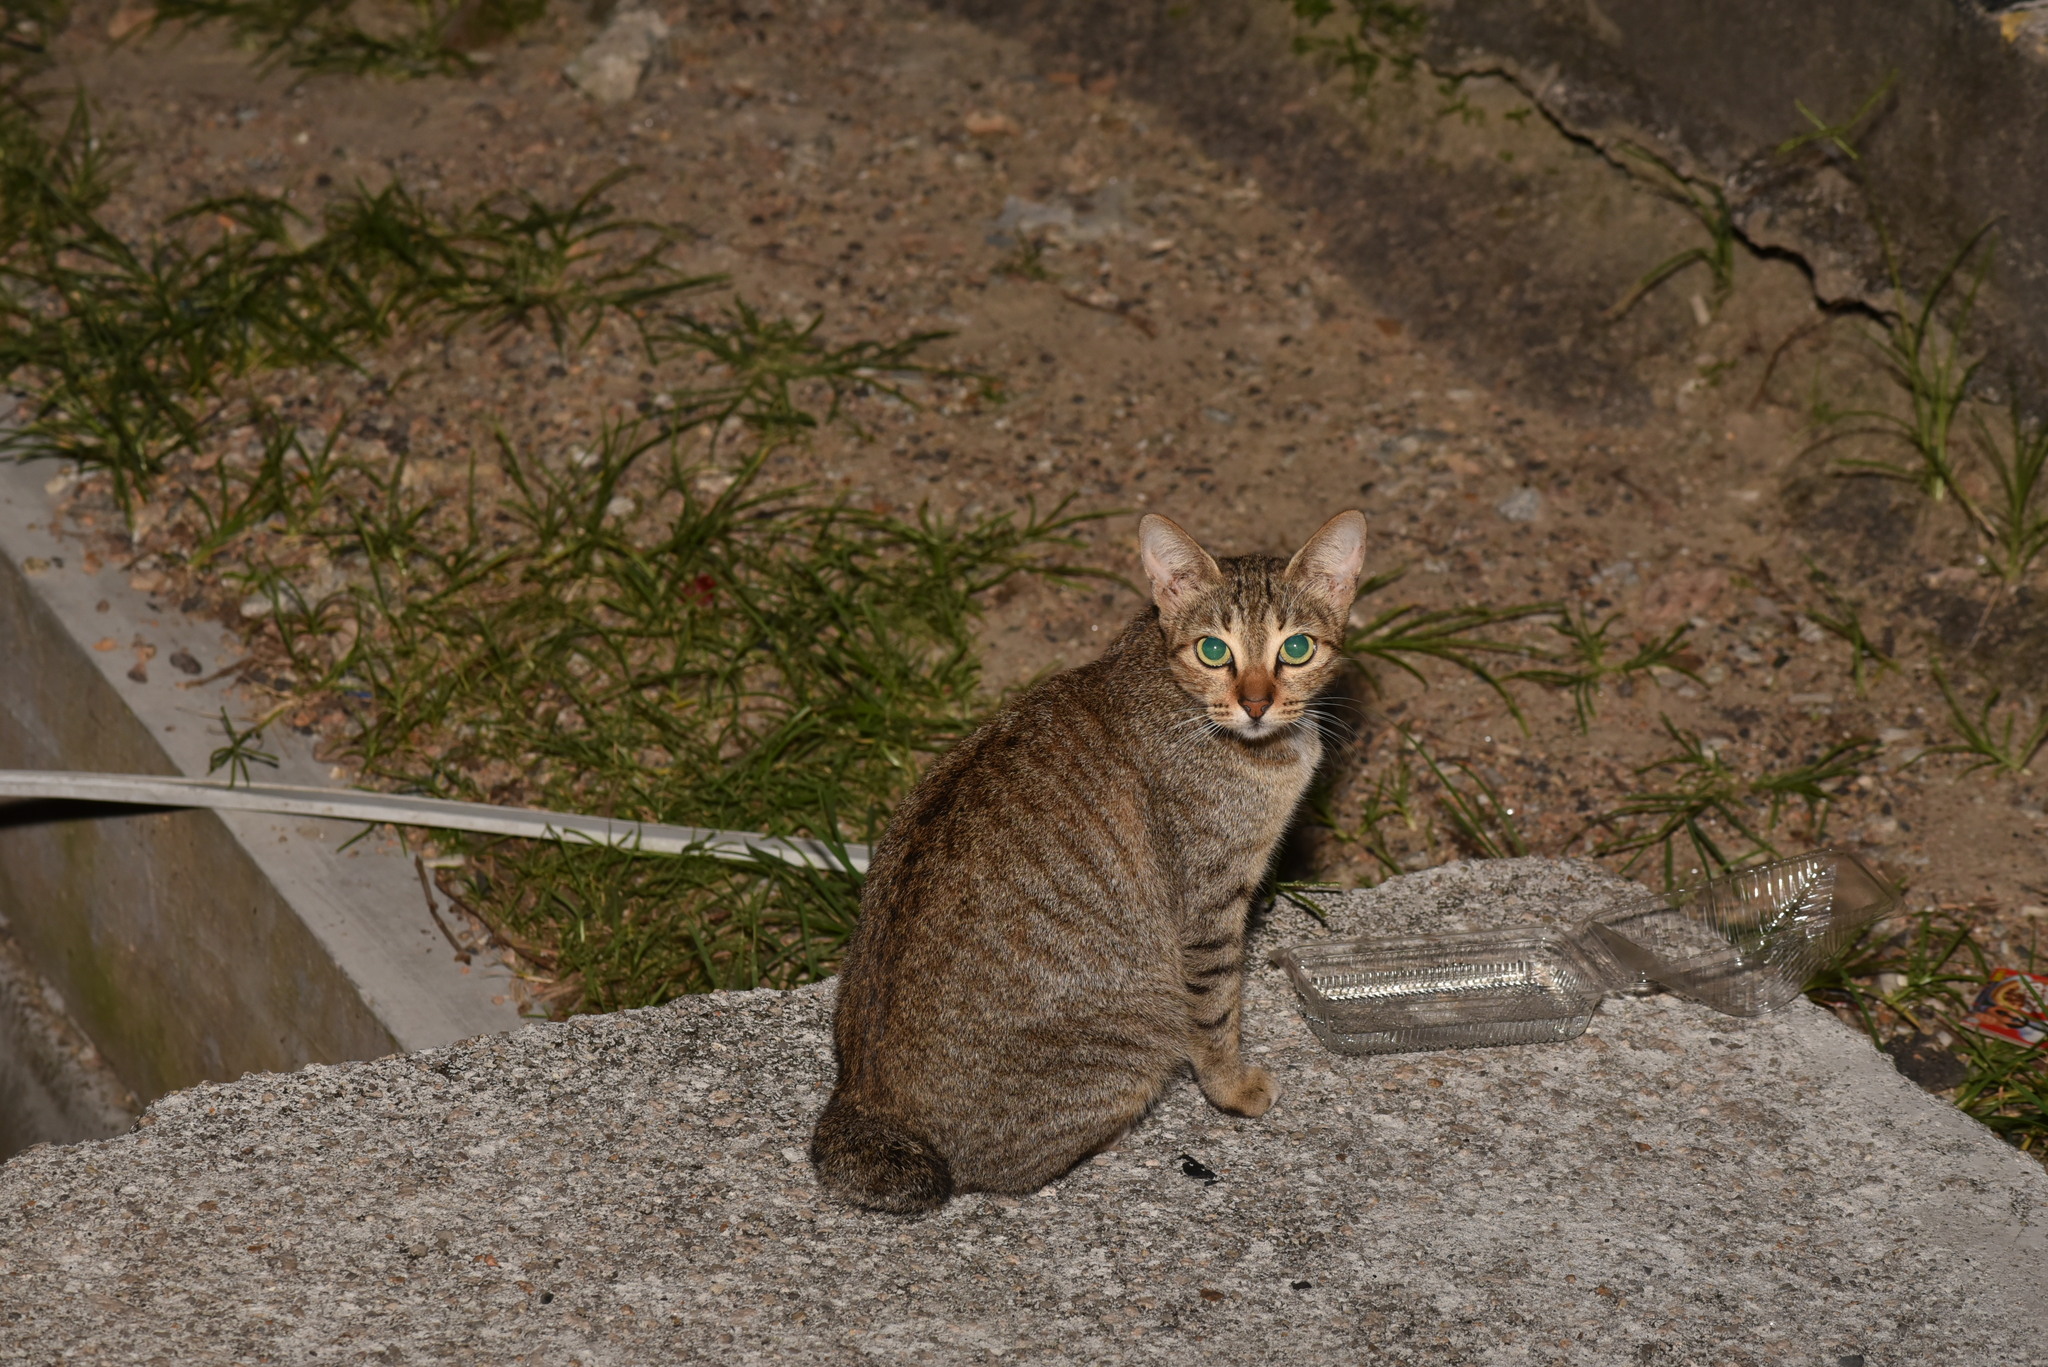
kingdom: Animalia
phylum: Chordata
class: Mammalia
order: Carnivora
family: Felidae
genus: Felis
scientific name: Felis catus
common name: Domestic cat
